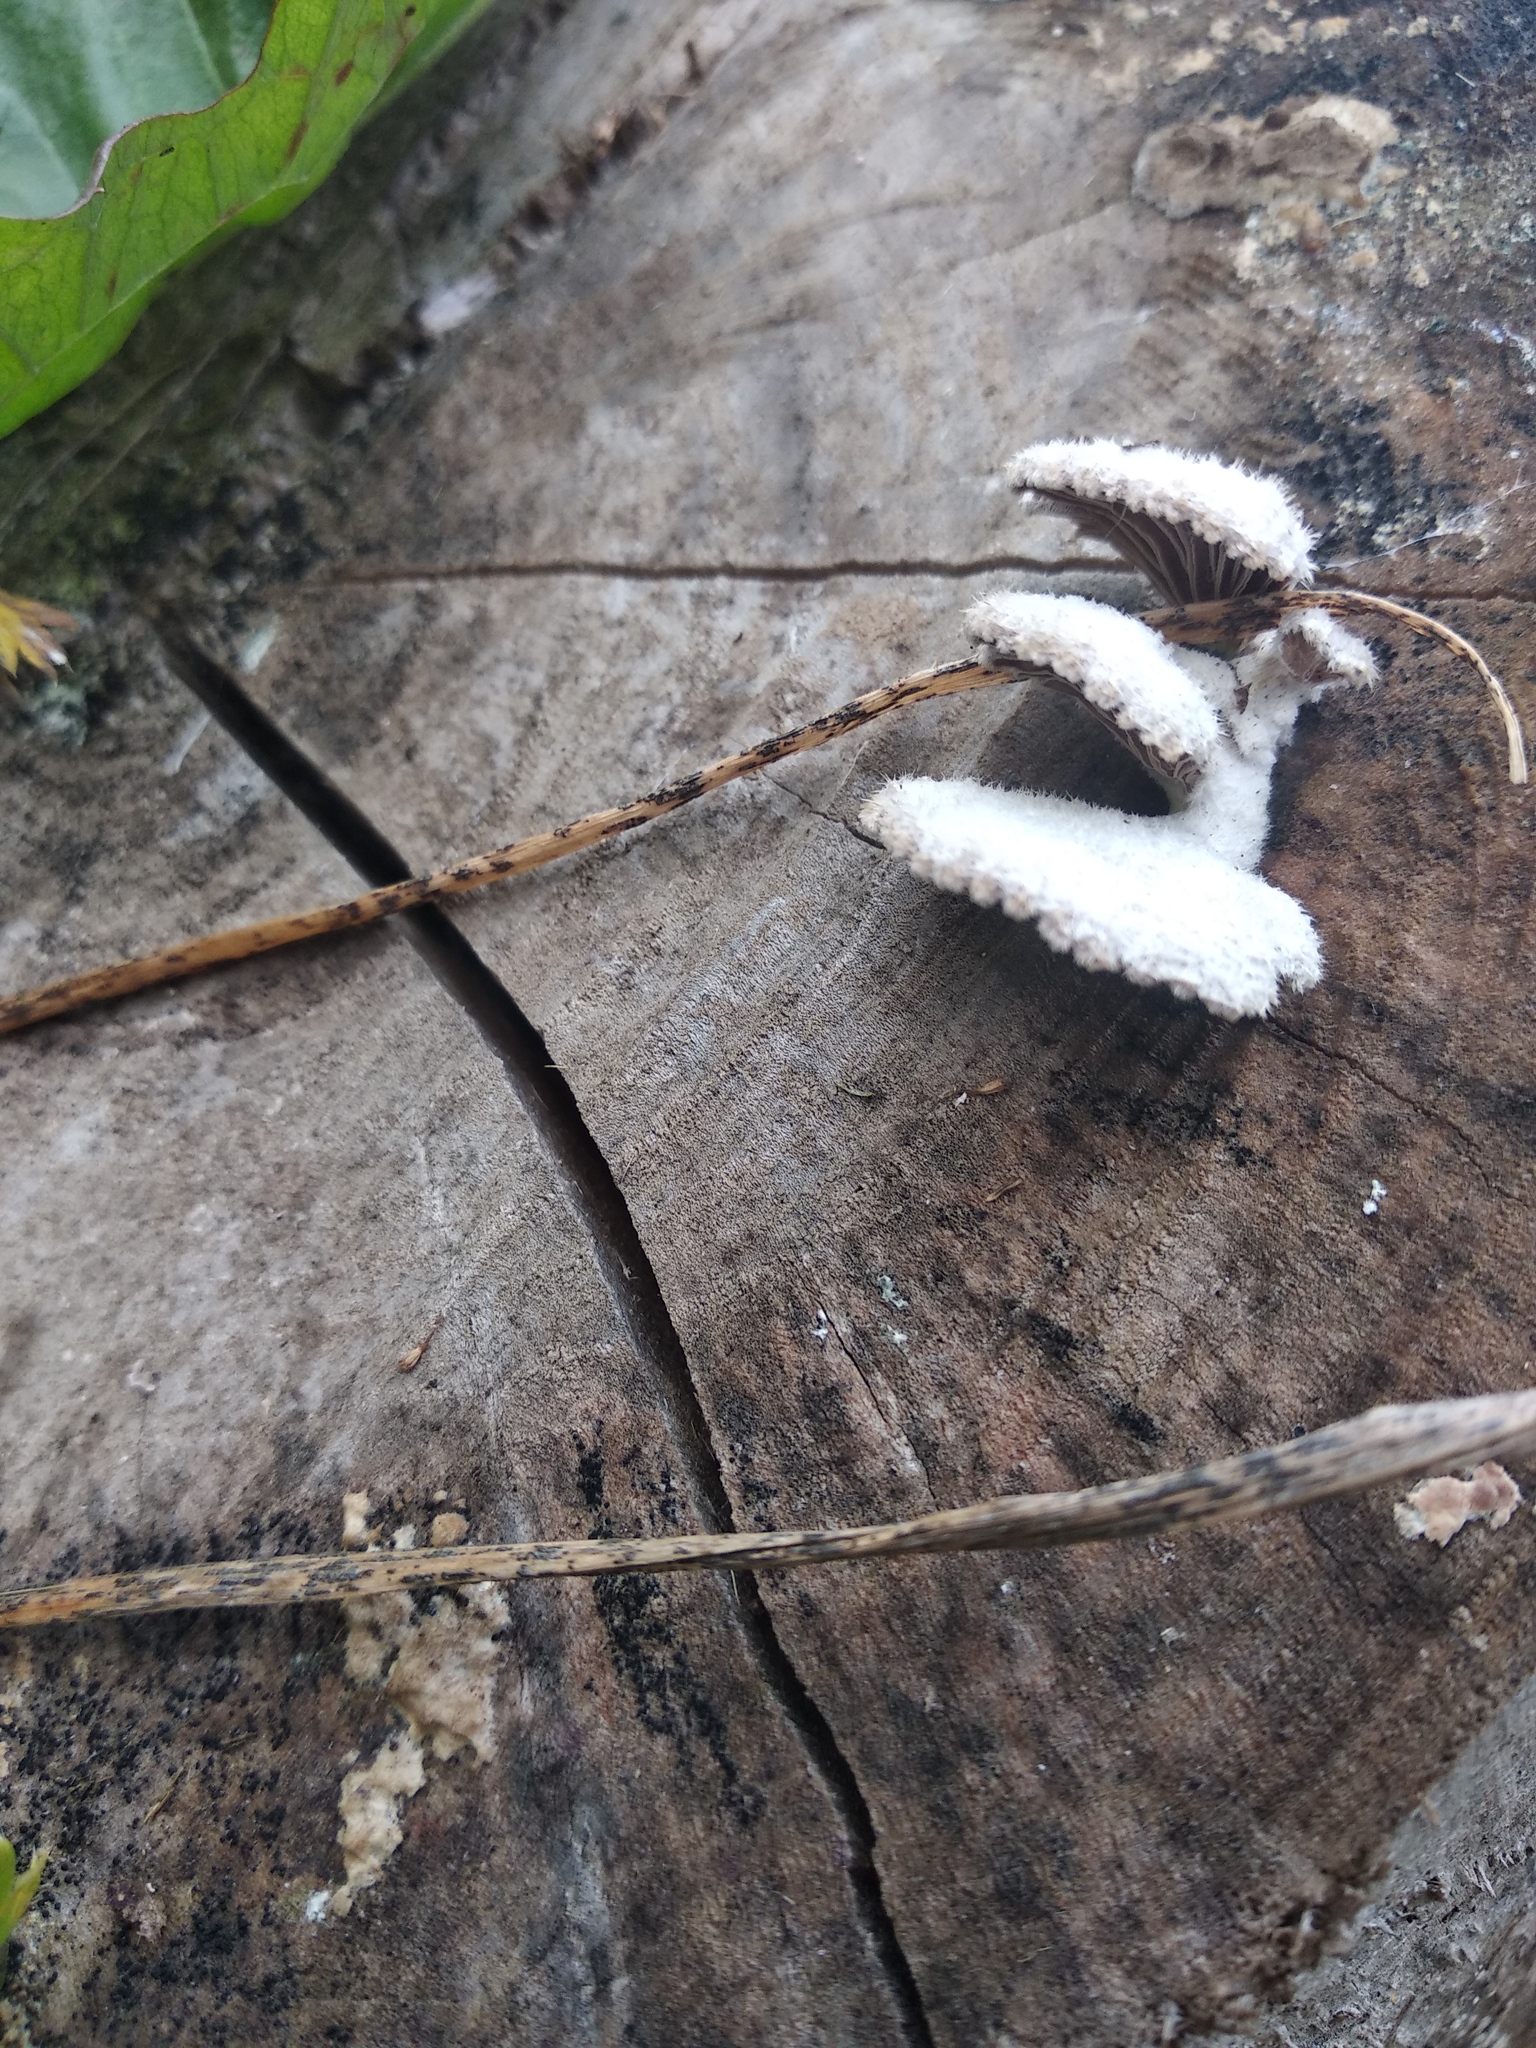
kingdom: Fungi
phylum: Basidiomycota
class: Agaricomycetes
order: Agaricales
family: Schizophyllaceae
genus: Schizophyllum
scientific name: Schizophyllum commune
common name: Common porecrust
